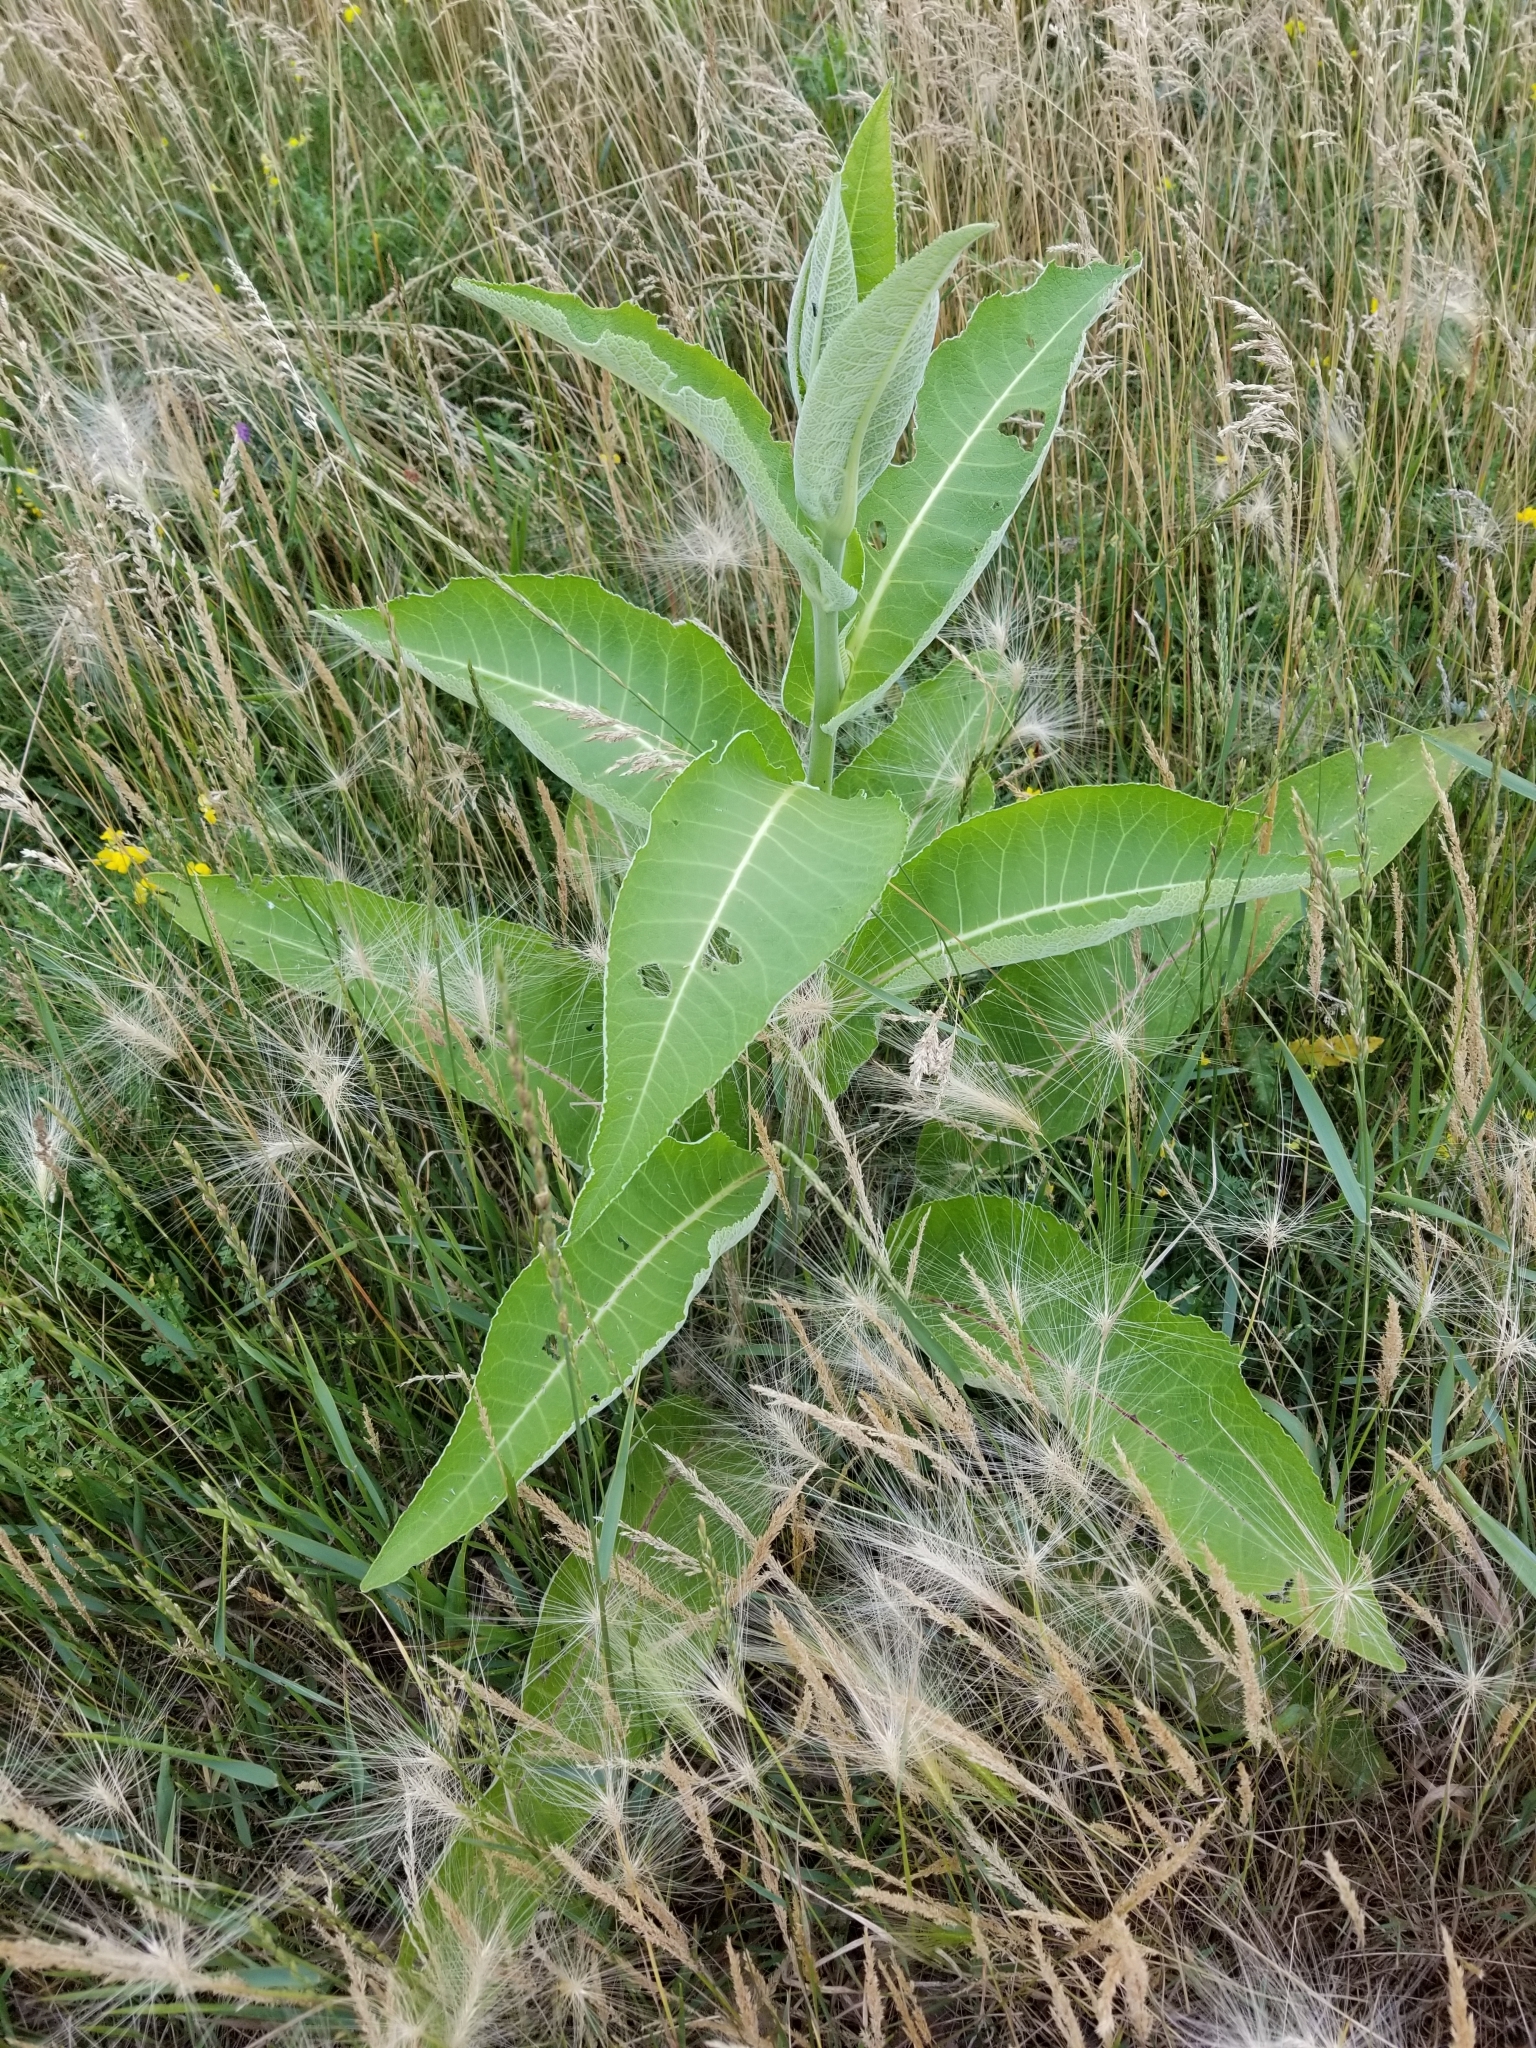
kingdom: Plantae
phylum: Tracheophyta
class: Magnoliopsida
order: Asterales
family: Asteraceae
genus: Inula
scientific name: Inula helenium
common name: Elecampane
